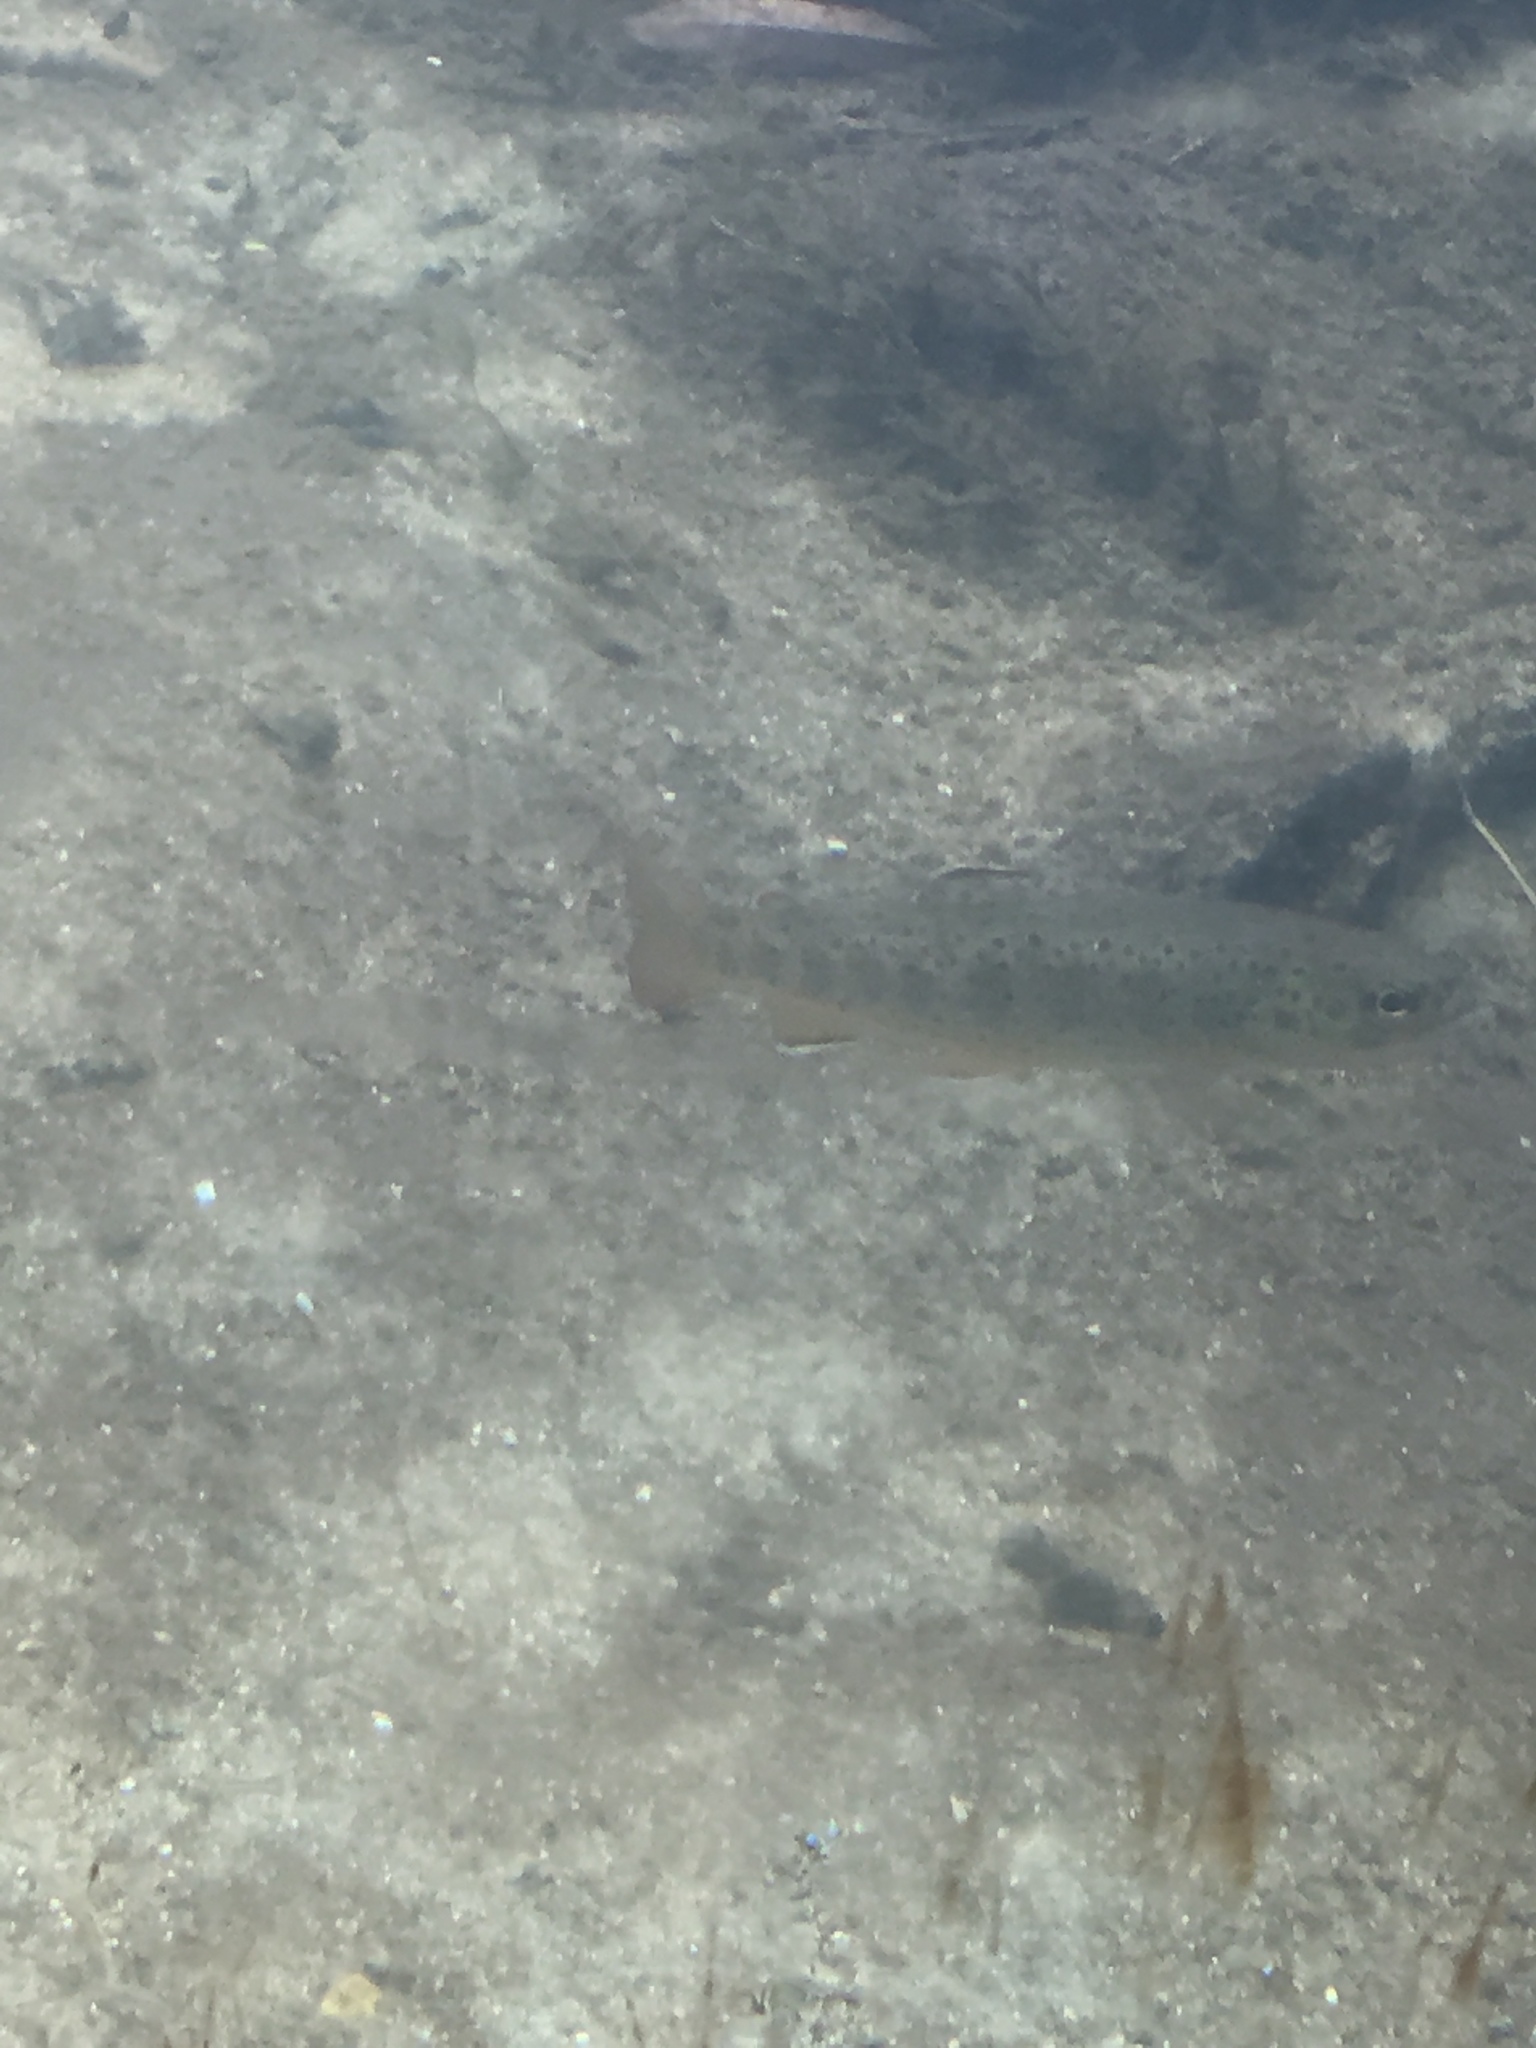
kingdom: Animalia
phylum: Chordata
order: Salmoniformes
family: Salmonidae
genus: Salmo
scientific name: Salmo trutta
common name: Brown trout
